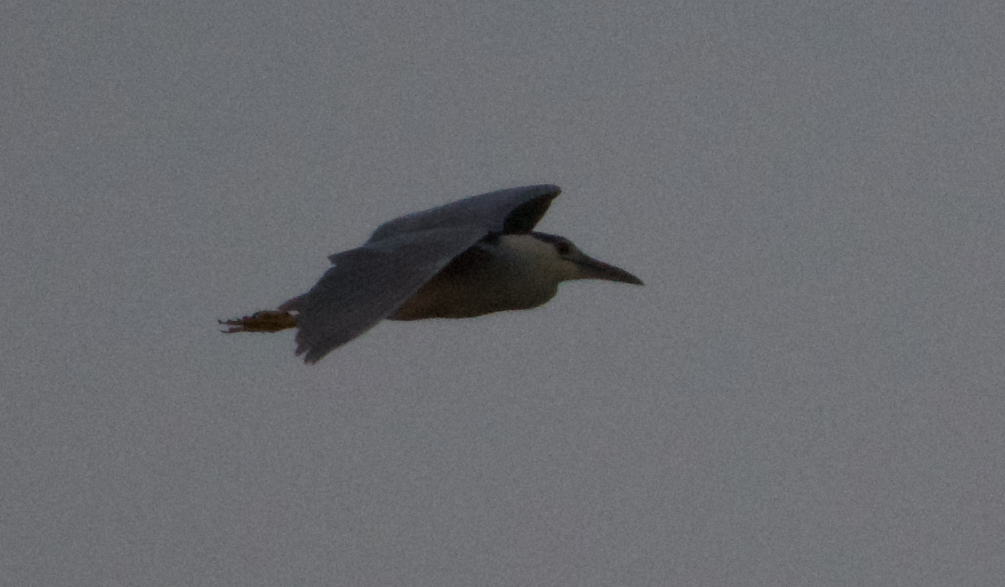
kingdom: Animalia
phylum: Chordata
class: Aves
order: Pelecaniformes
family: Ardeidae
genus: Nycticorax
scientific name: Nycticorax nycticorax
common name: Black-crowned night heron
